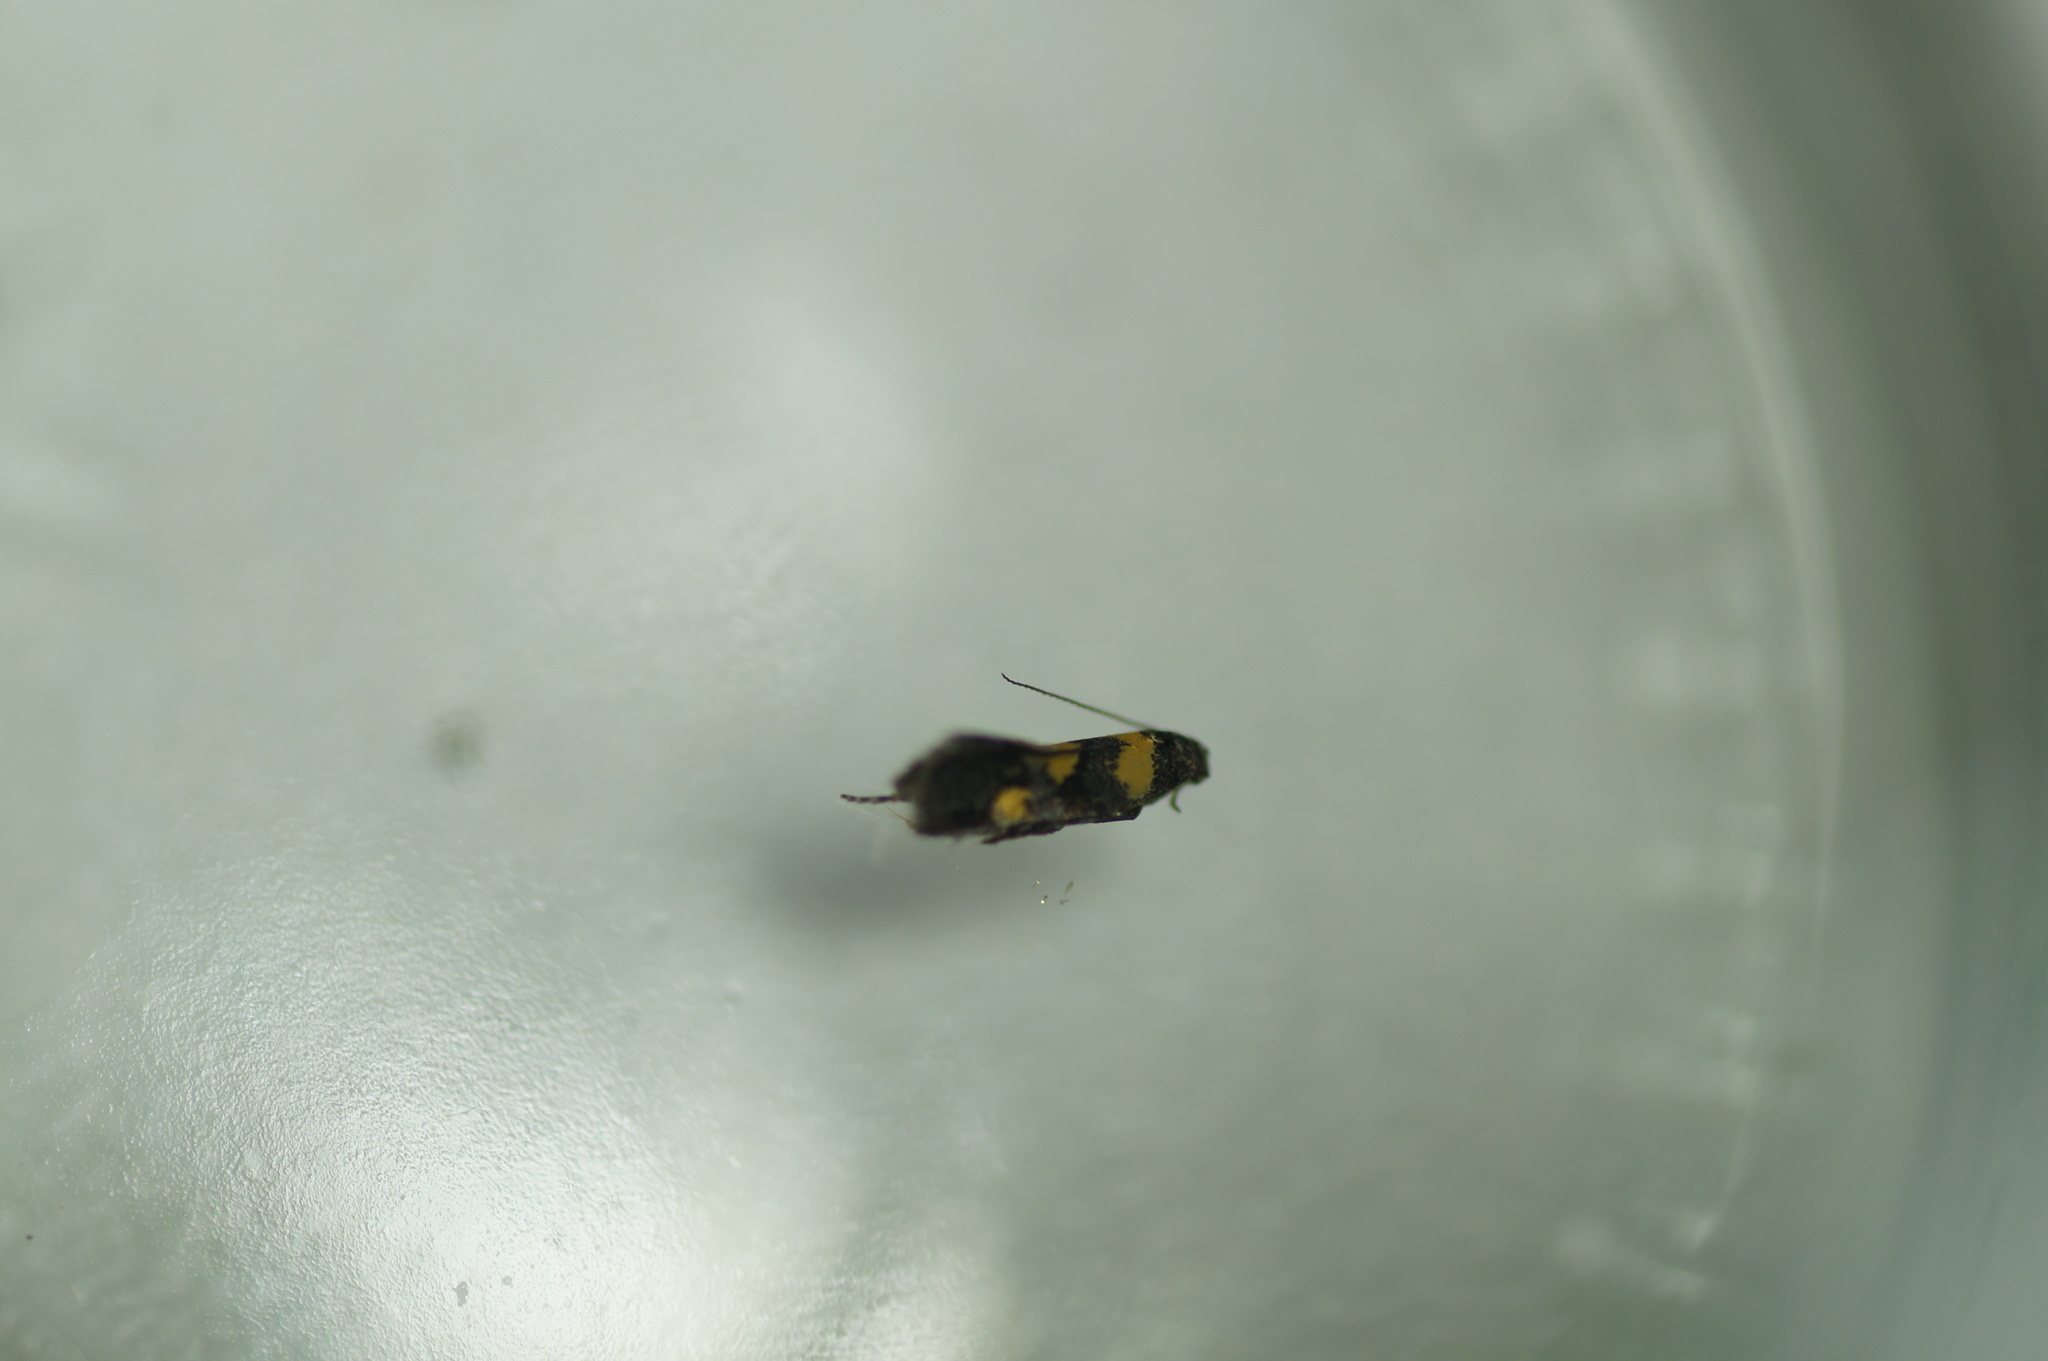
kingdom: Animalia
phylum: Arthropoda
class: Insecta
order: Lepidoptera
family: Gelechiidae
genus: Chrysoesthia
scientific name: Chrysoesthia sexguttella
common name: Moth
